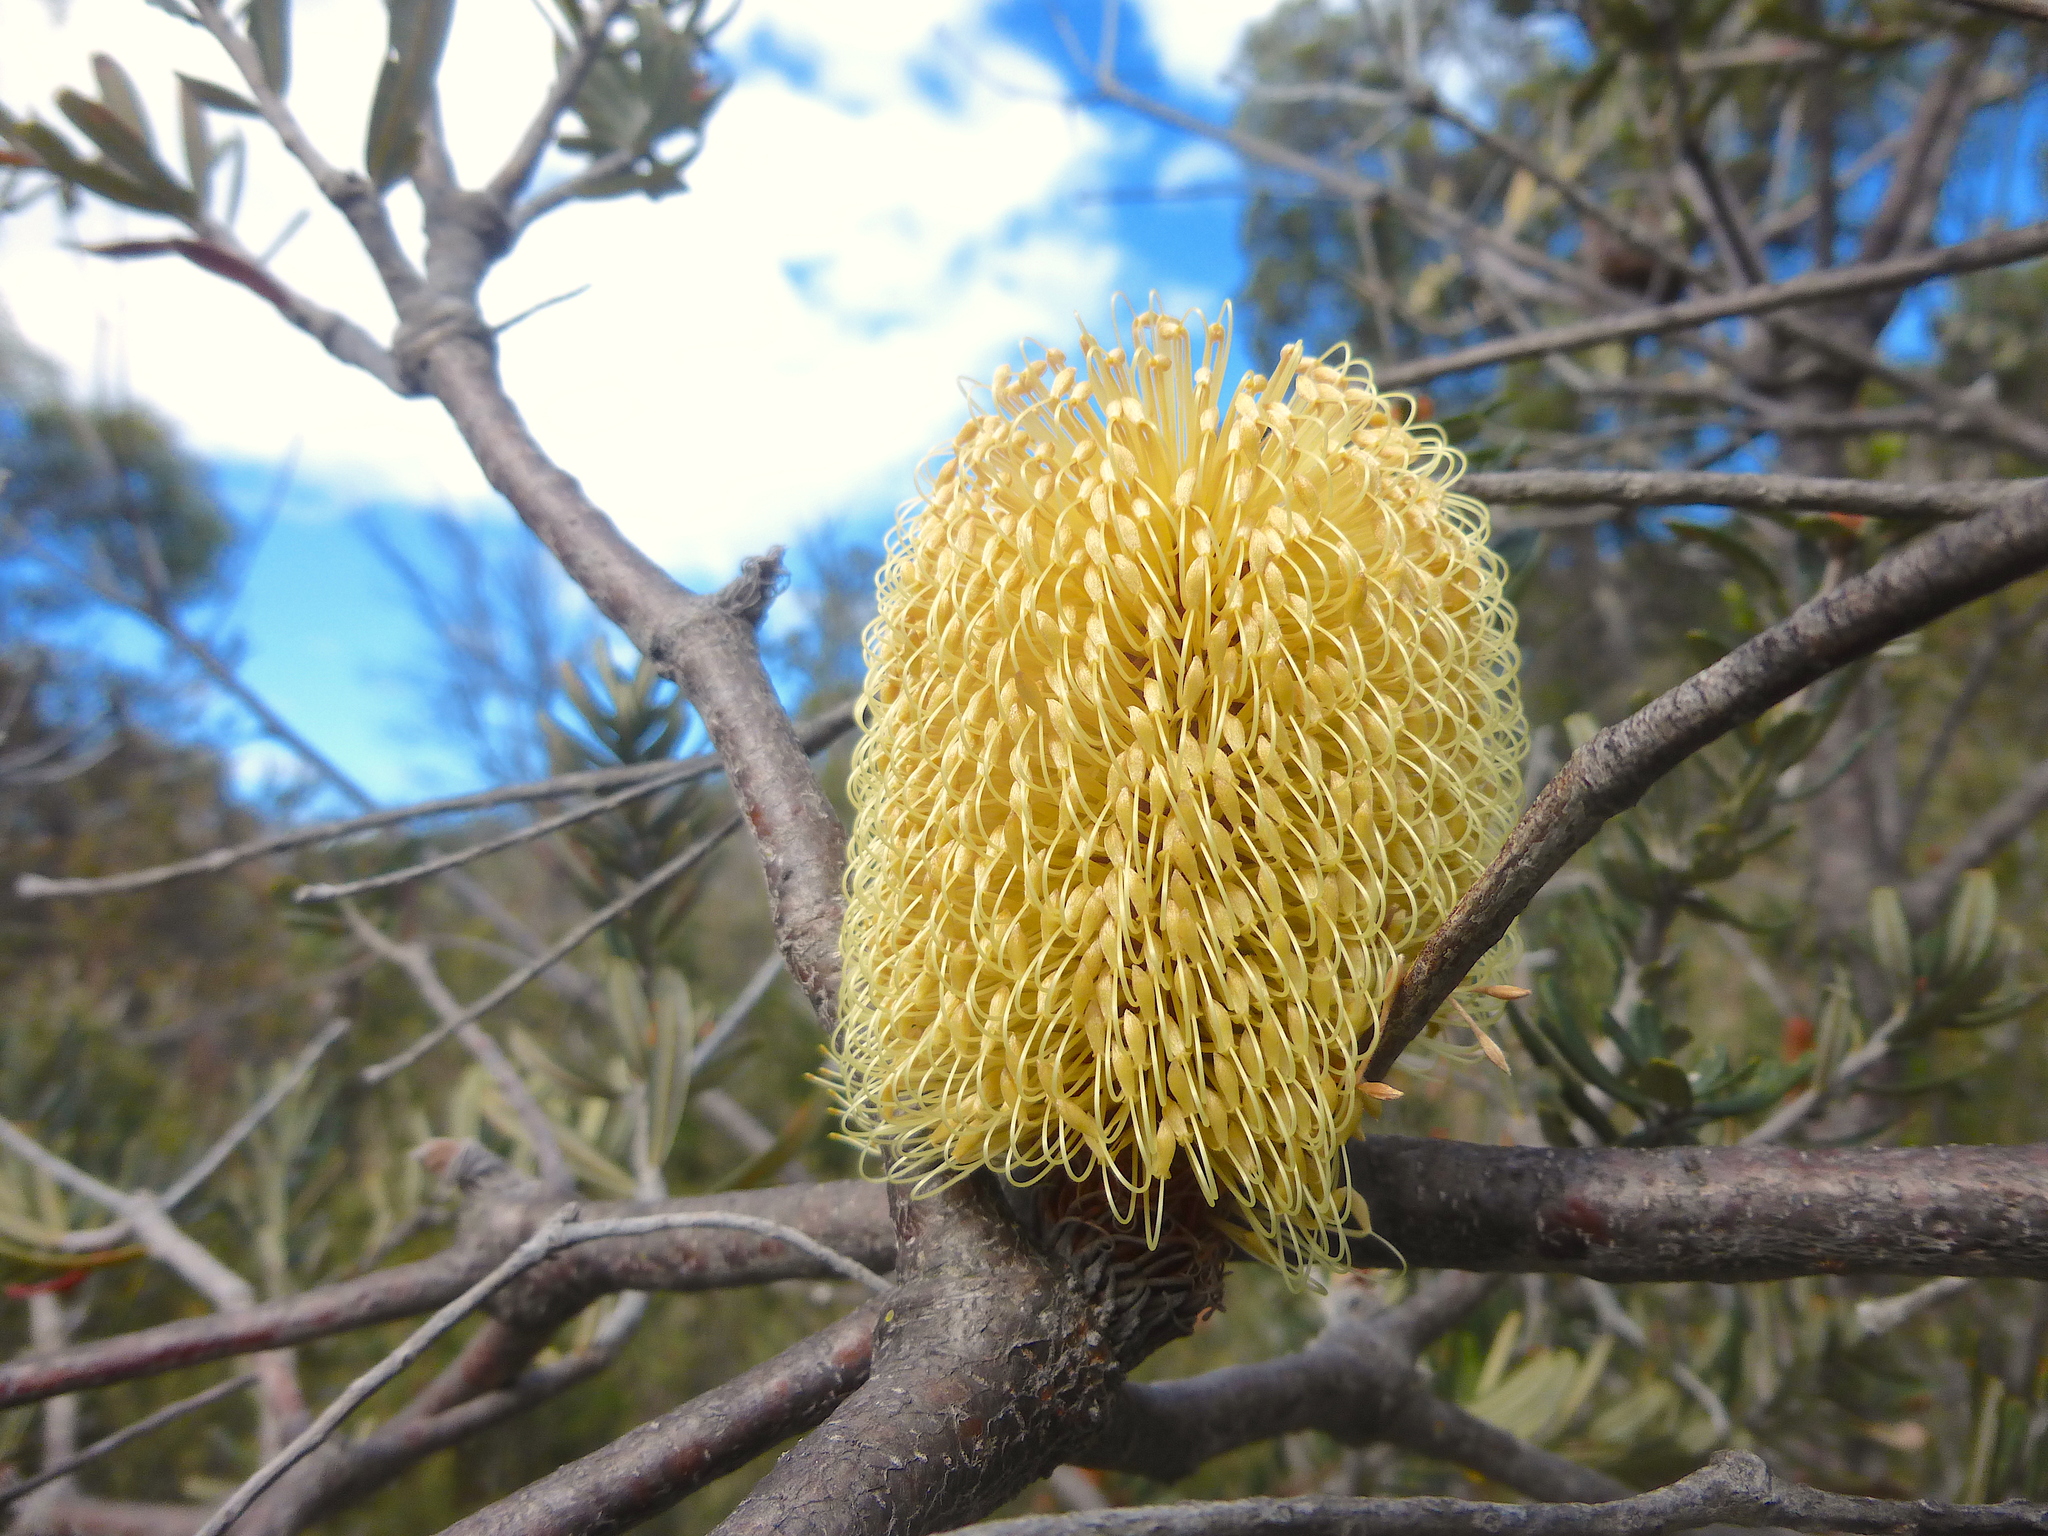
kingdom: Plantae
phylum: Tracheophyta
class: Magnoliopsida
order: Proteales
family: Proteaceae
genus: Banksia
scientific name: Banksia marginata
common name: Silver banksia
